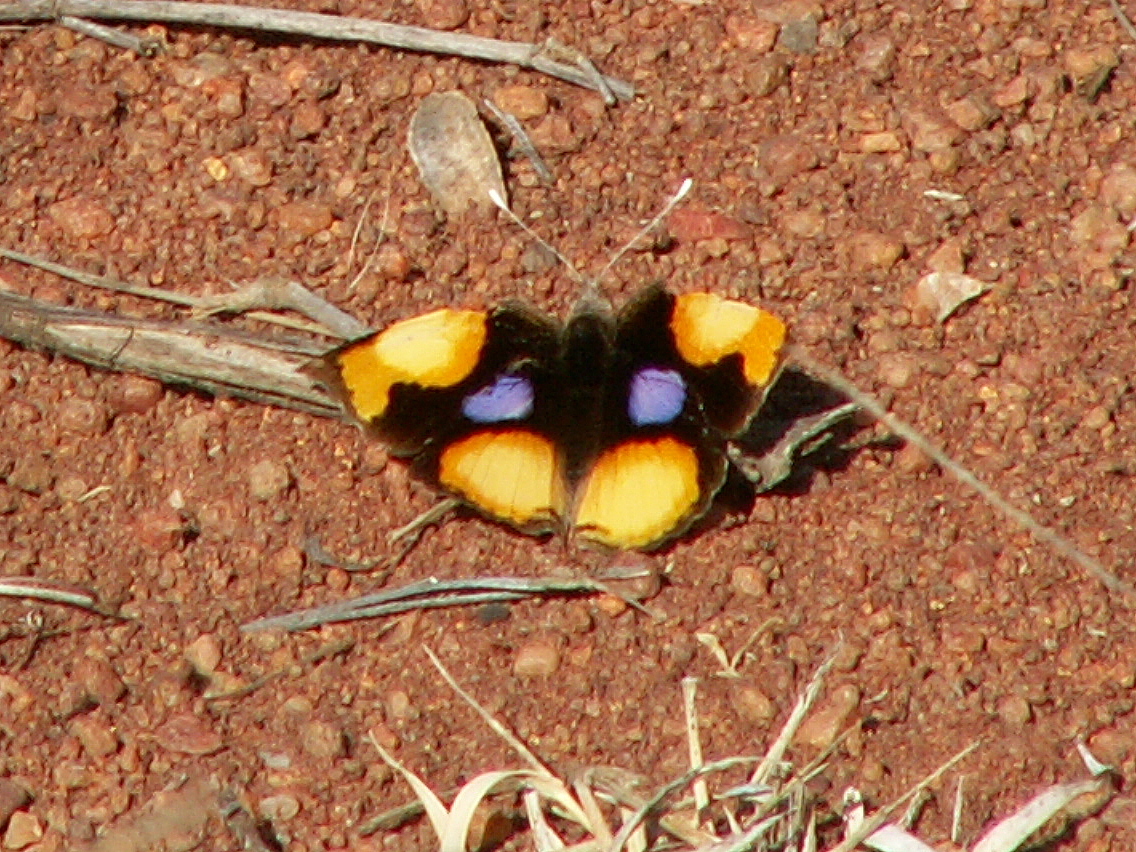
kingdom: Animalia
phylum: Arthropoda
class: Insecta
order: Lepidoptera
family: Nymphalidae
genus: Junonia
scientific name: Junonia hierta
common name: Yellow pansy
